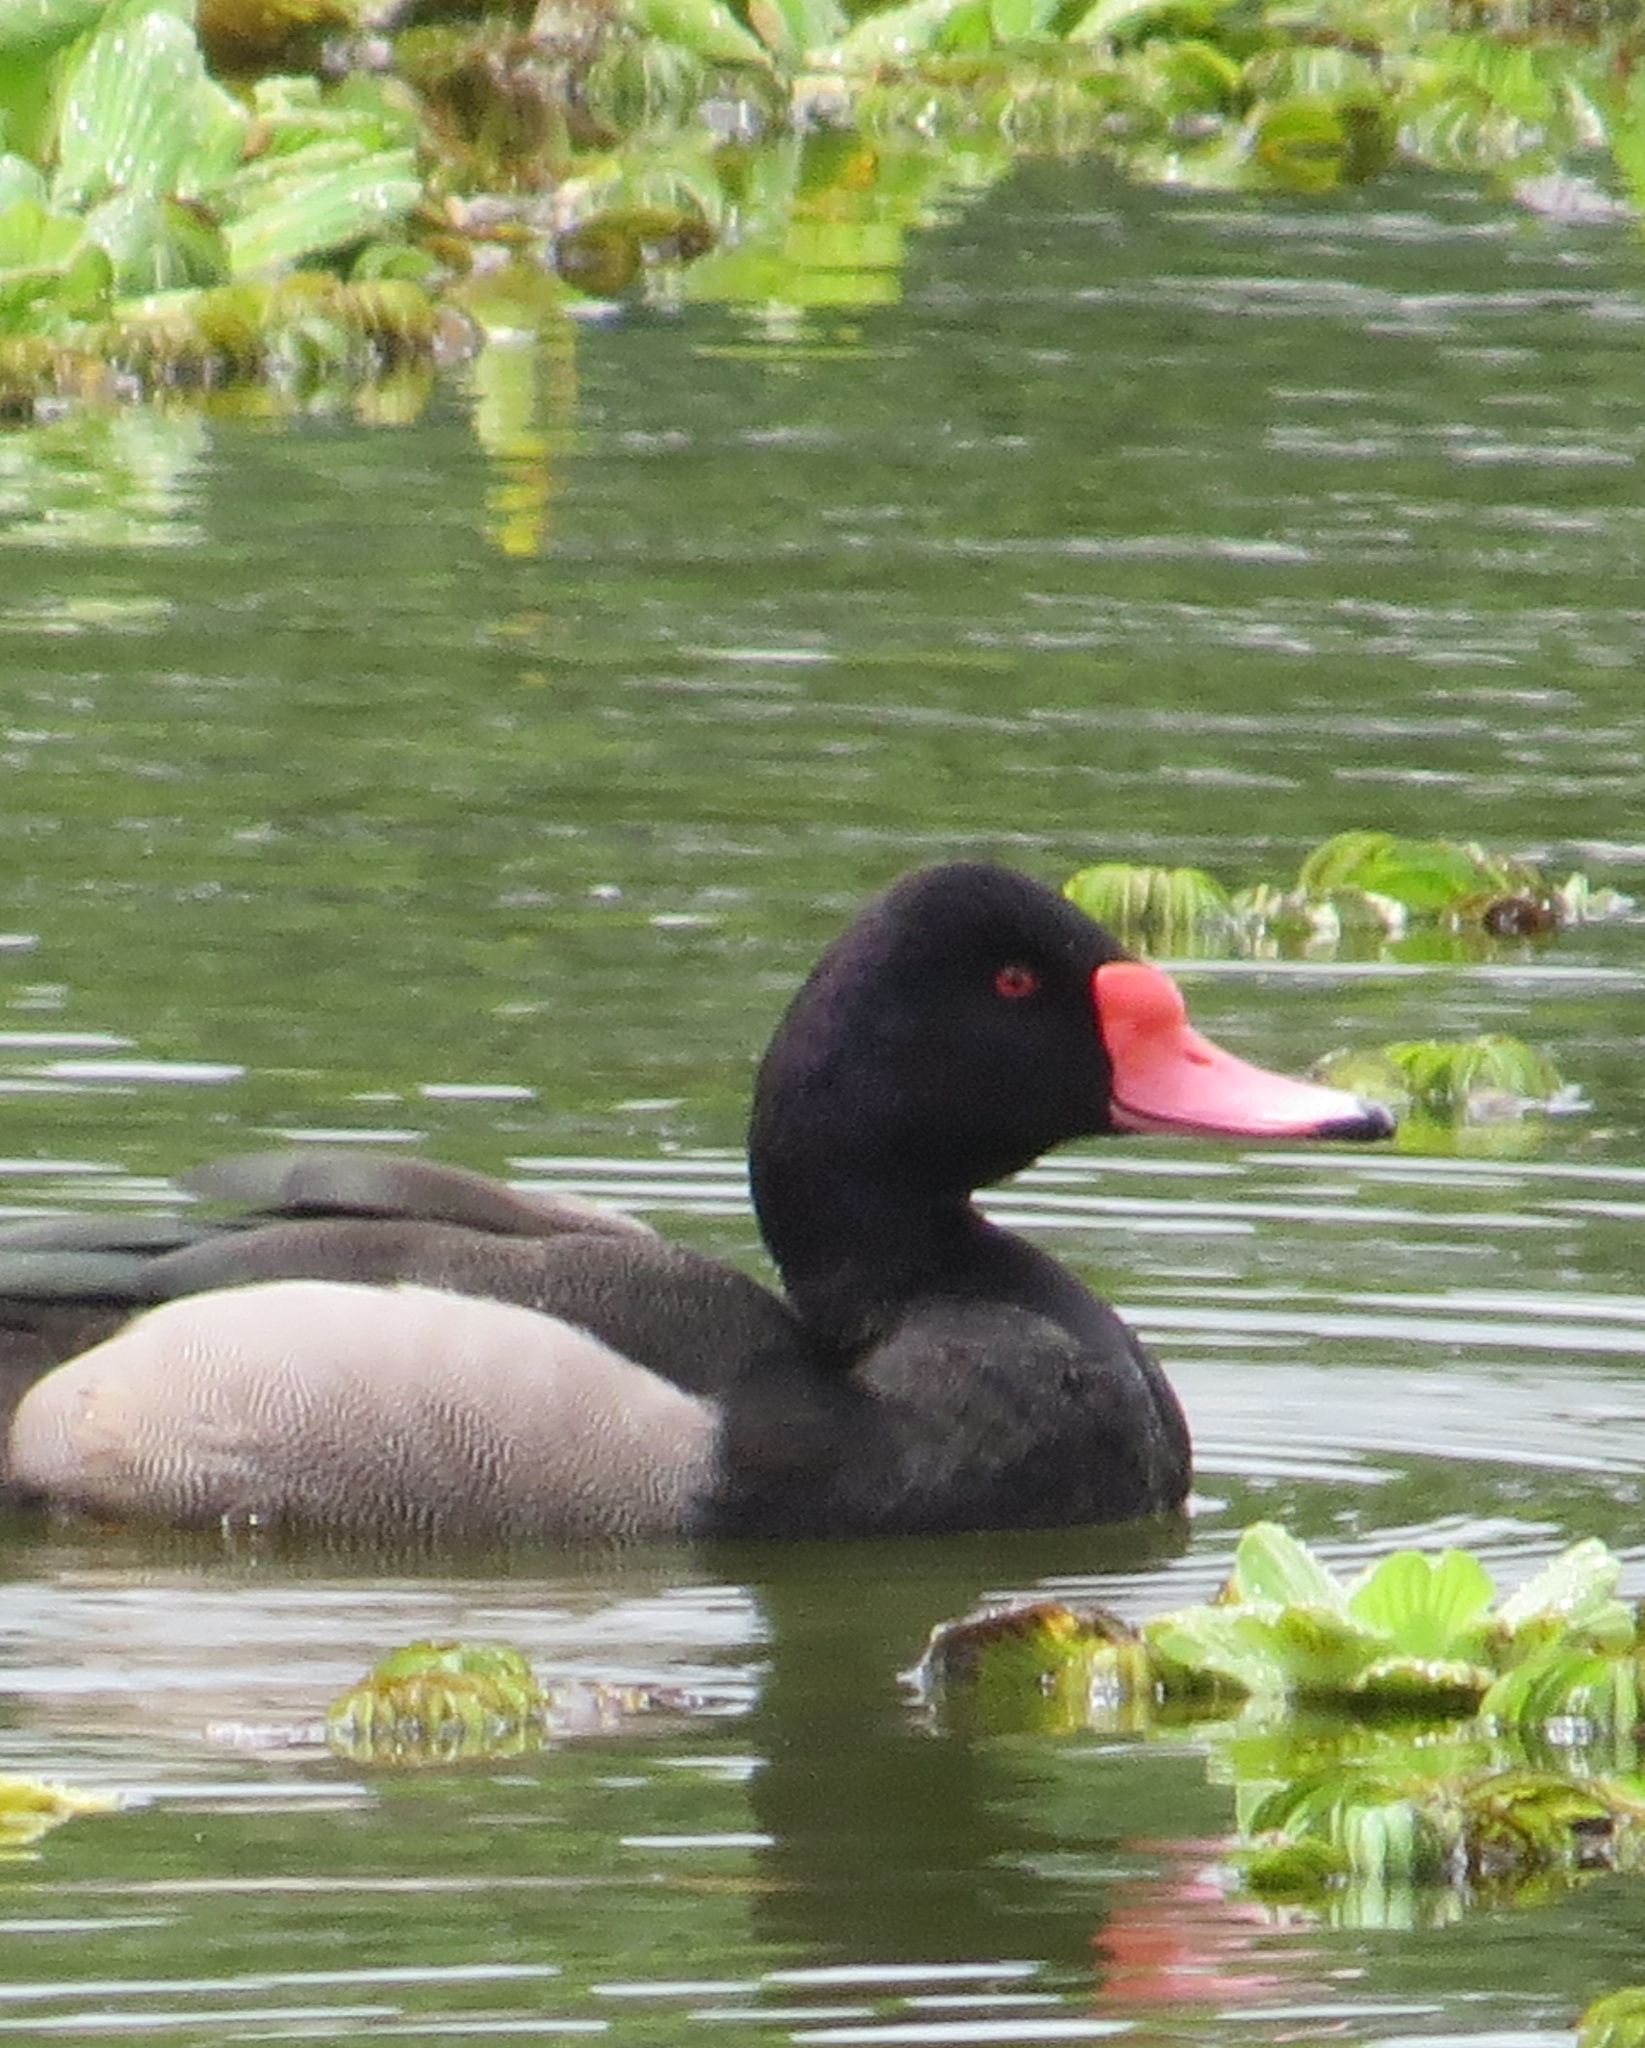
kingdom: Animalia
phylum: Chordata
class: Aves
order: Anseriformes
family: Anatidae
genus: Netta
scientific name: Netta peposaca
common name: Rosy-billed pochard
